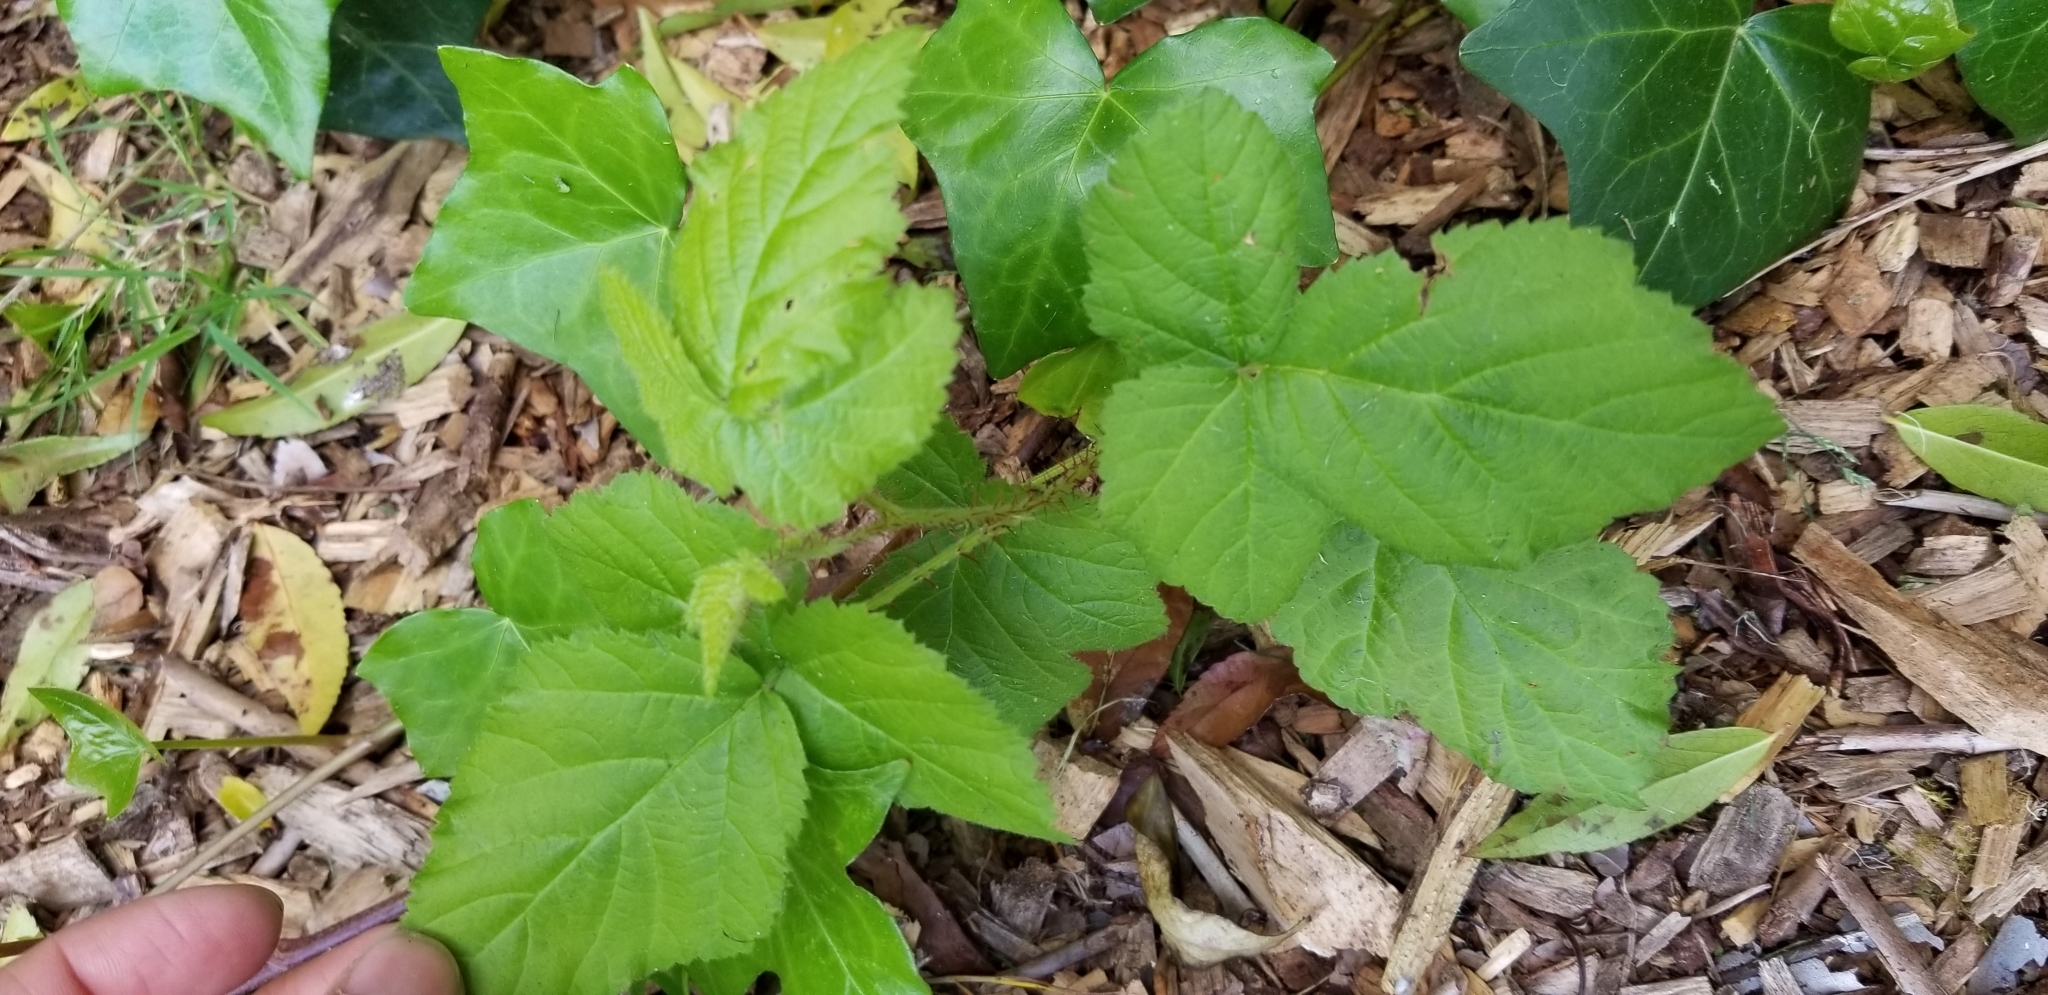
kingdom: Plantae
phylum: Tracheophyta
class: Magnoliopsida
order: Rosales
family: Rosaceae
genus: Rubus
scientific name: Rubus ursinus
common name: Pacific blackberry
